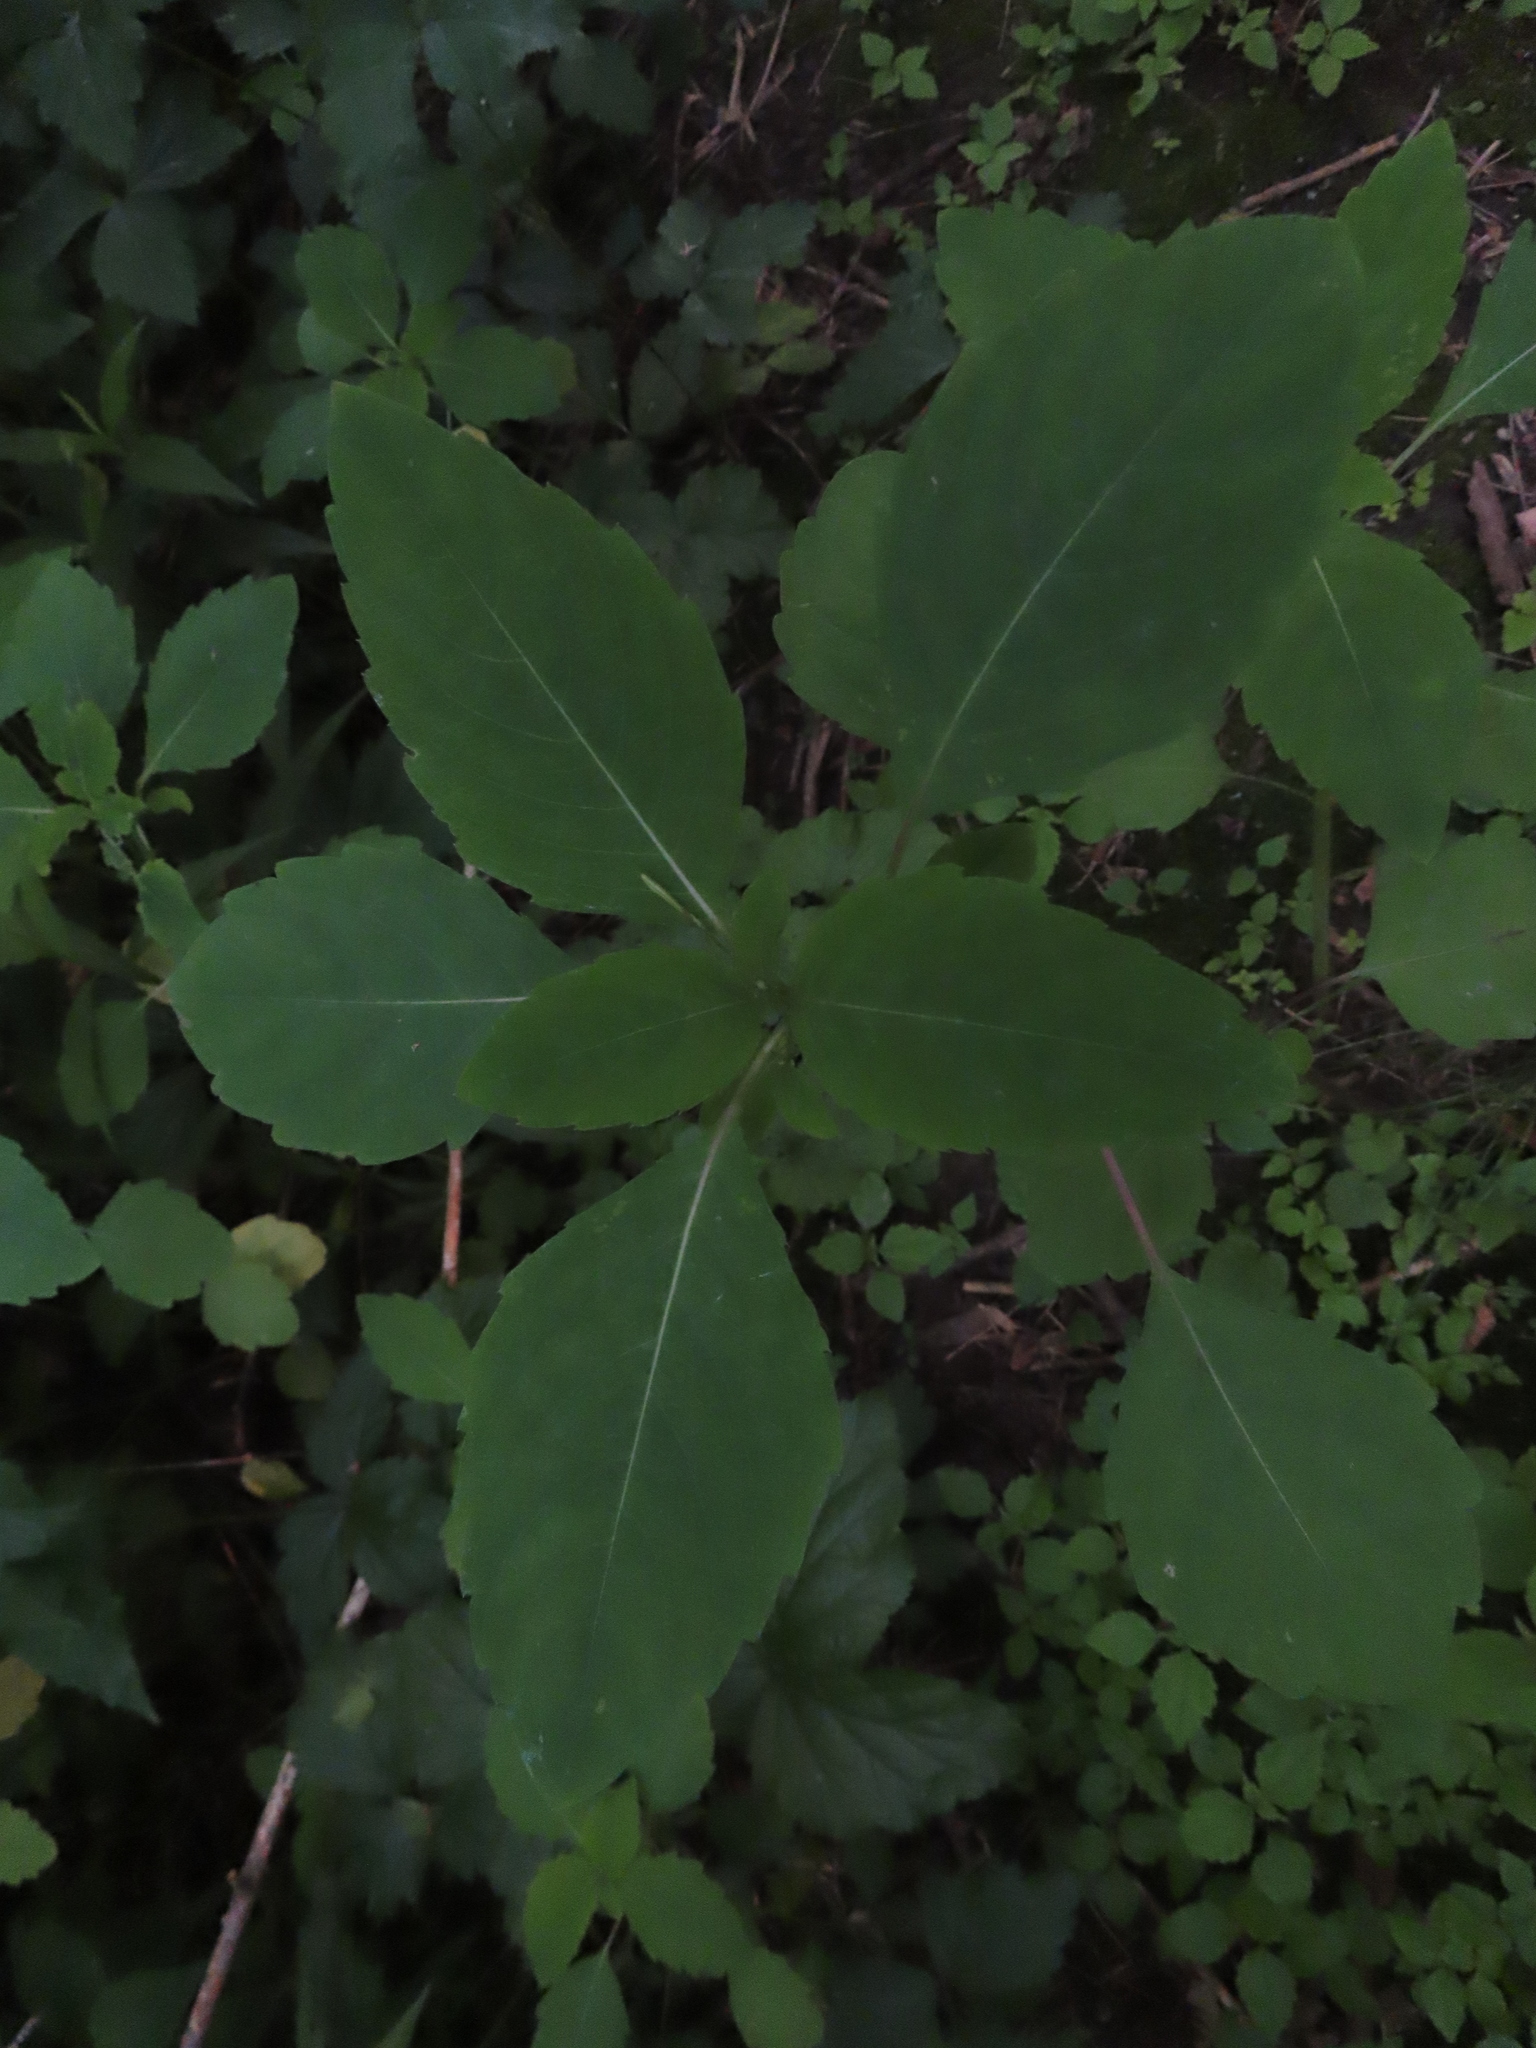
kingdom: Plantae
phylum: Tracheophyta
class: Magnoliopsida
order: Ericales
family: Balsaminaceae
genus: Impatiens
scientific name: Impatiens capensis
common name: Orange balsam
